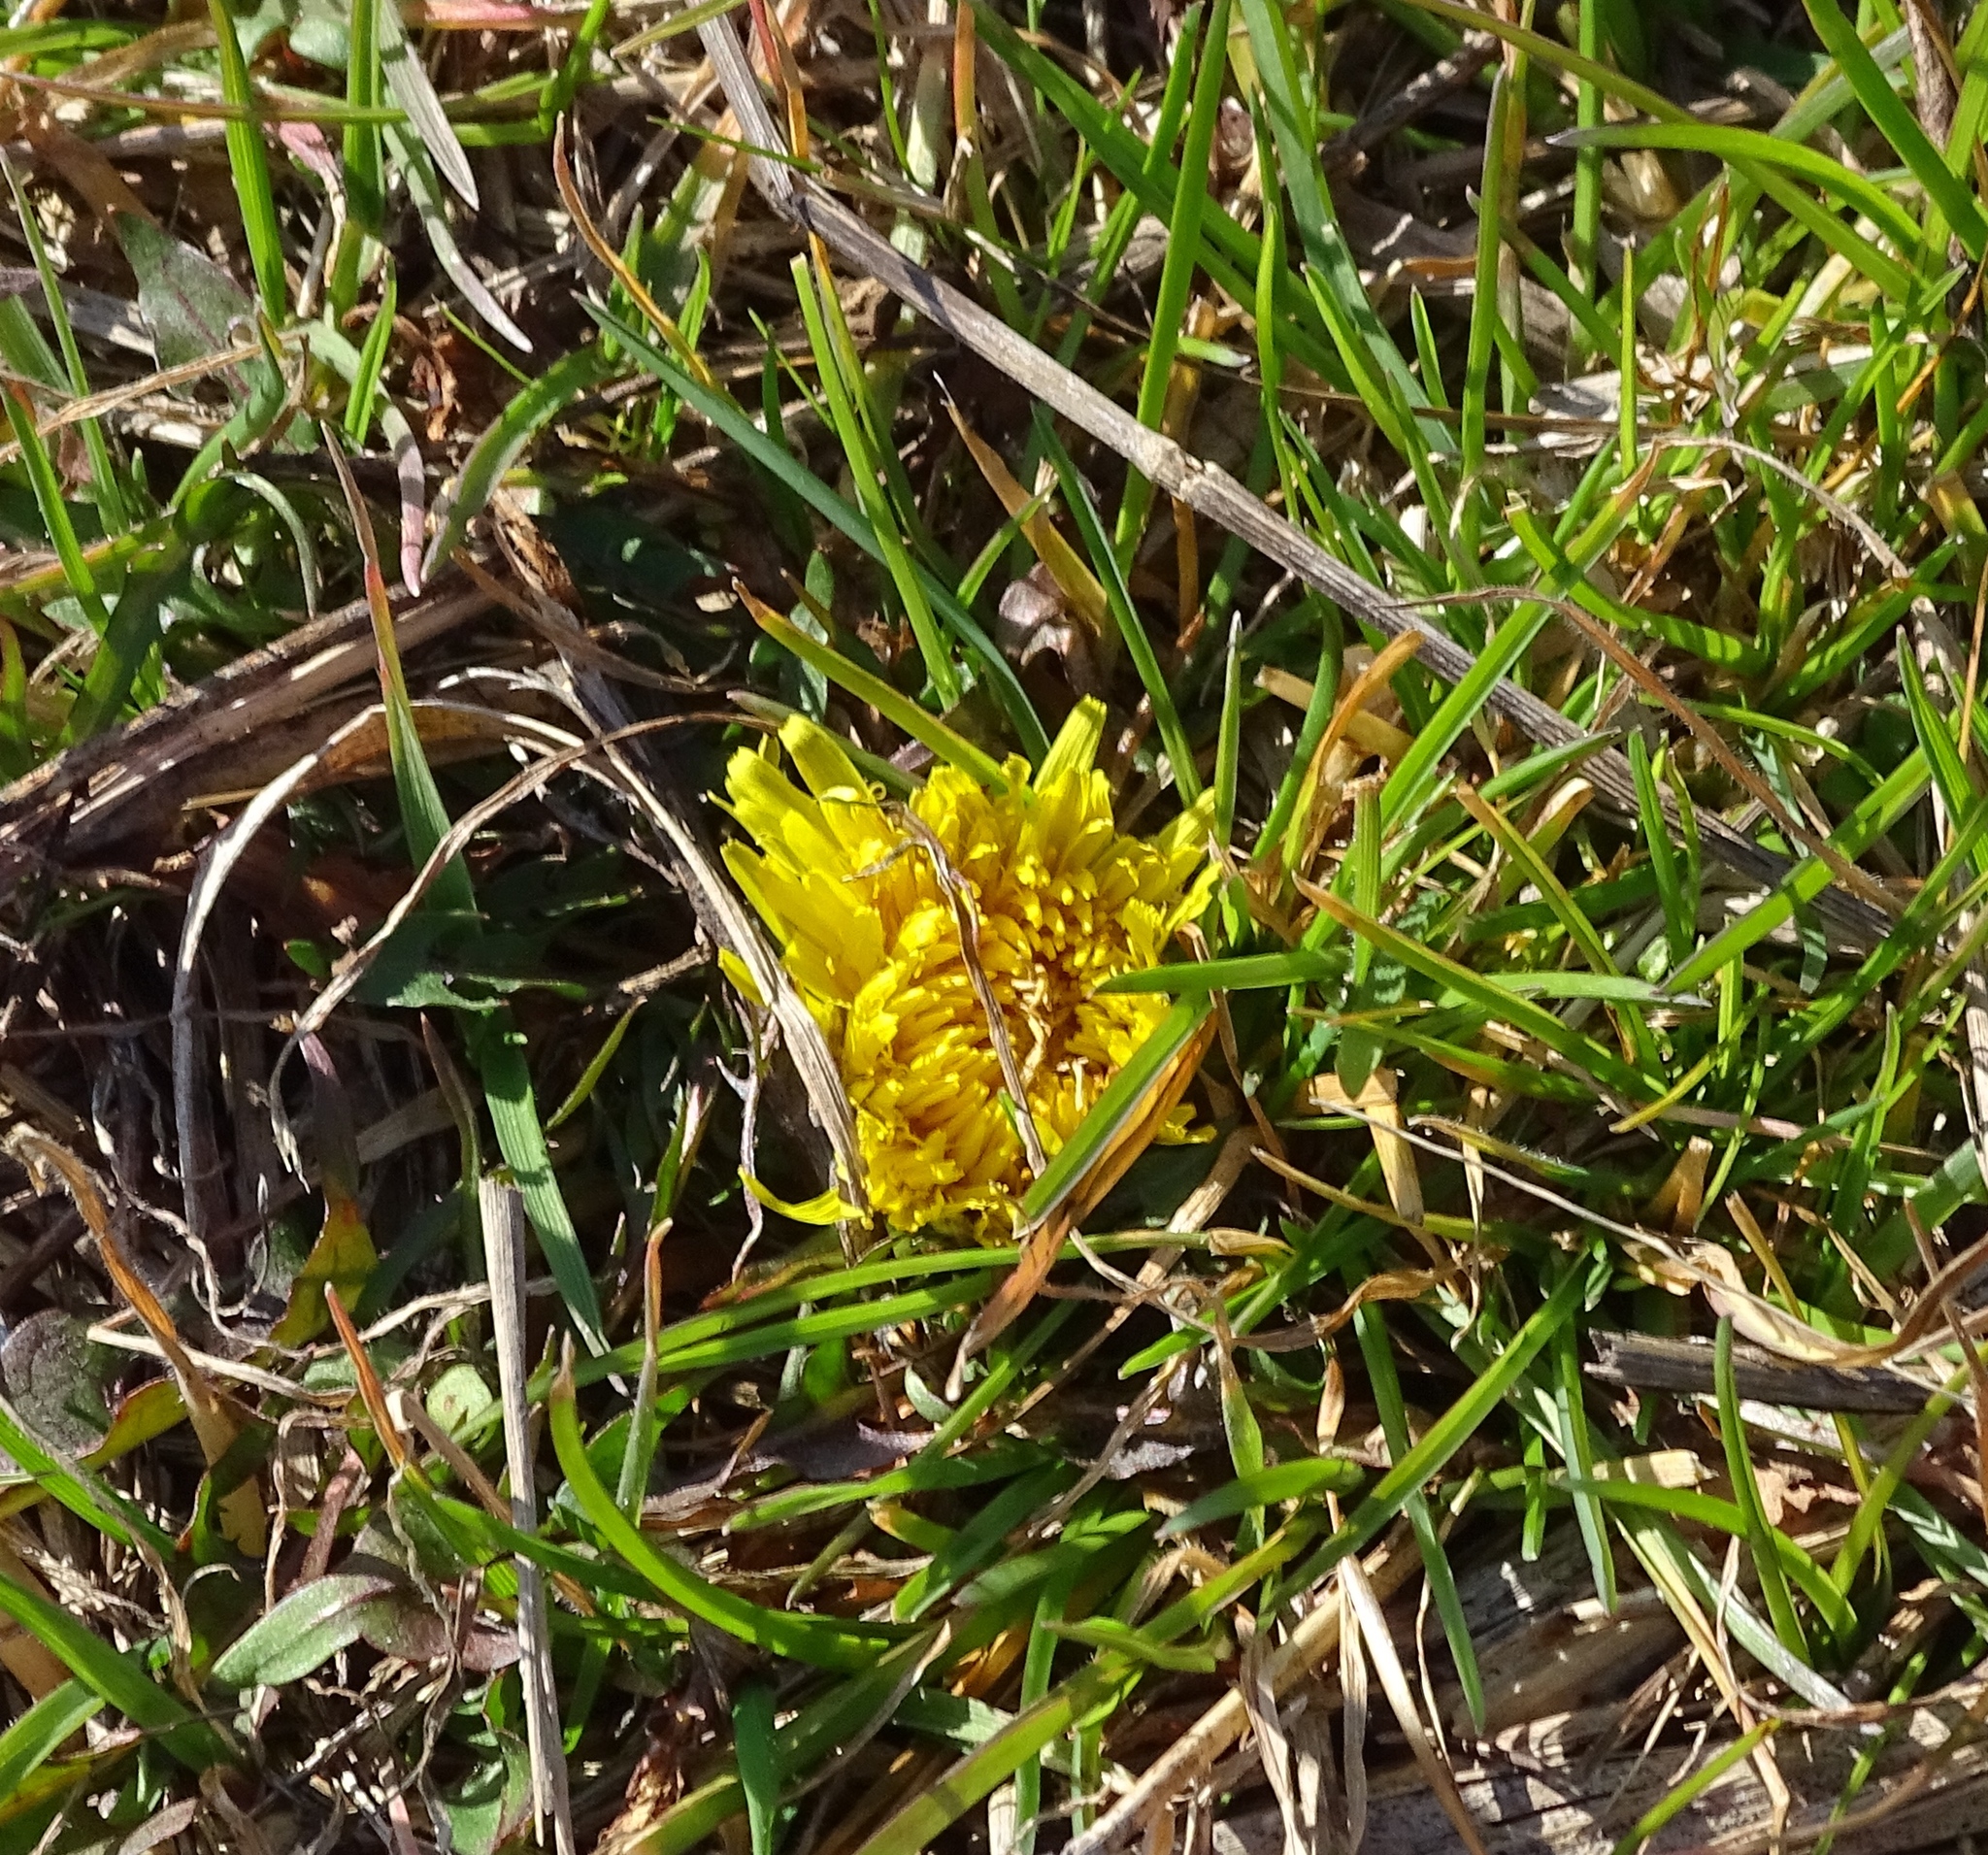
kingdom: Plantae
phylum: Tracheophyta
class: Magnoliopsida
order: Asterales
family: Asteraceae
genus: Taraxacum
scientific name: Taraxacum officinale
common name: Common dandelion
